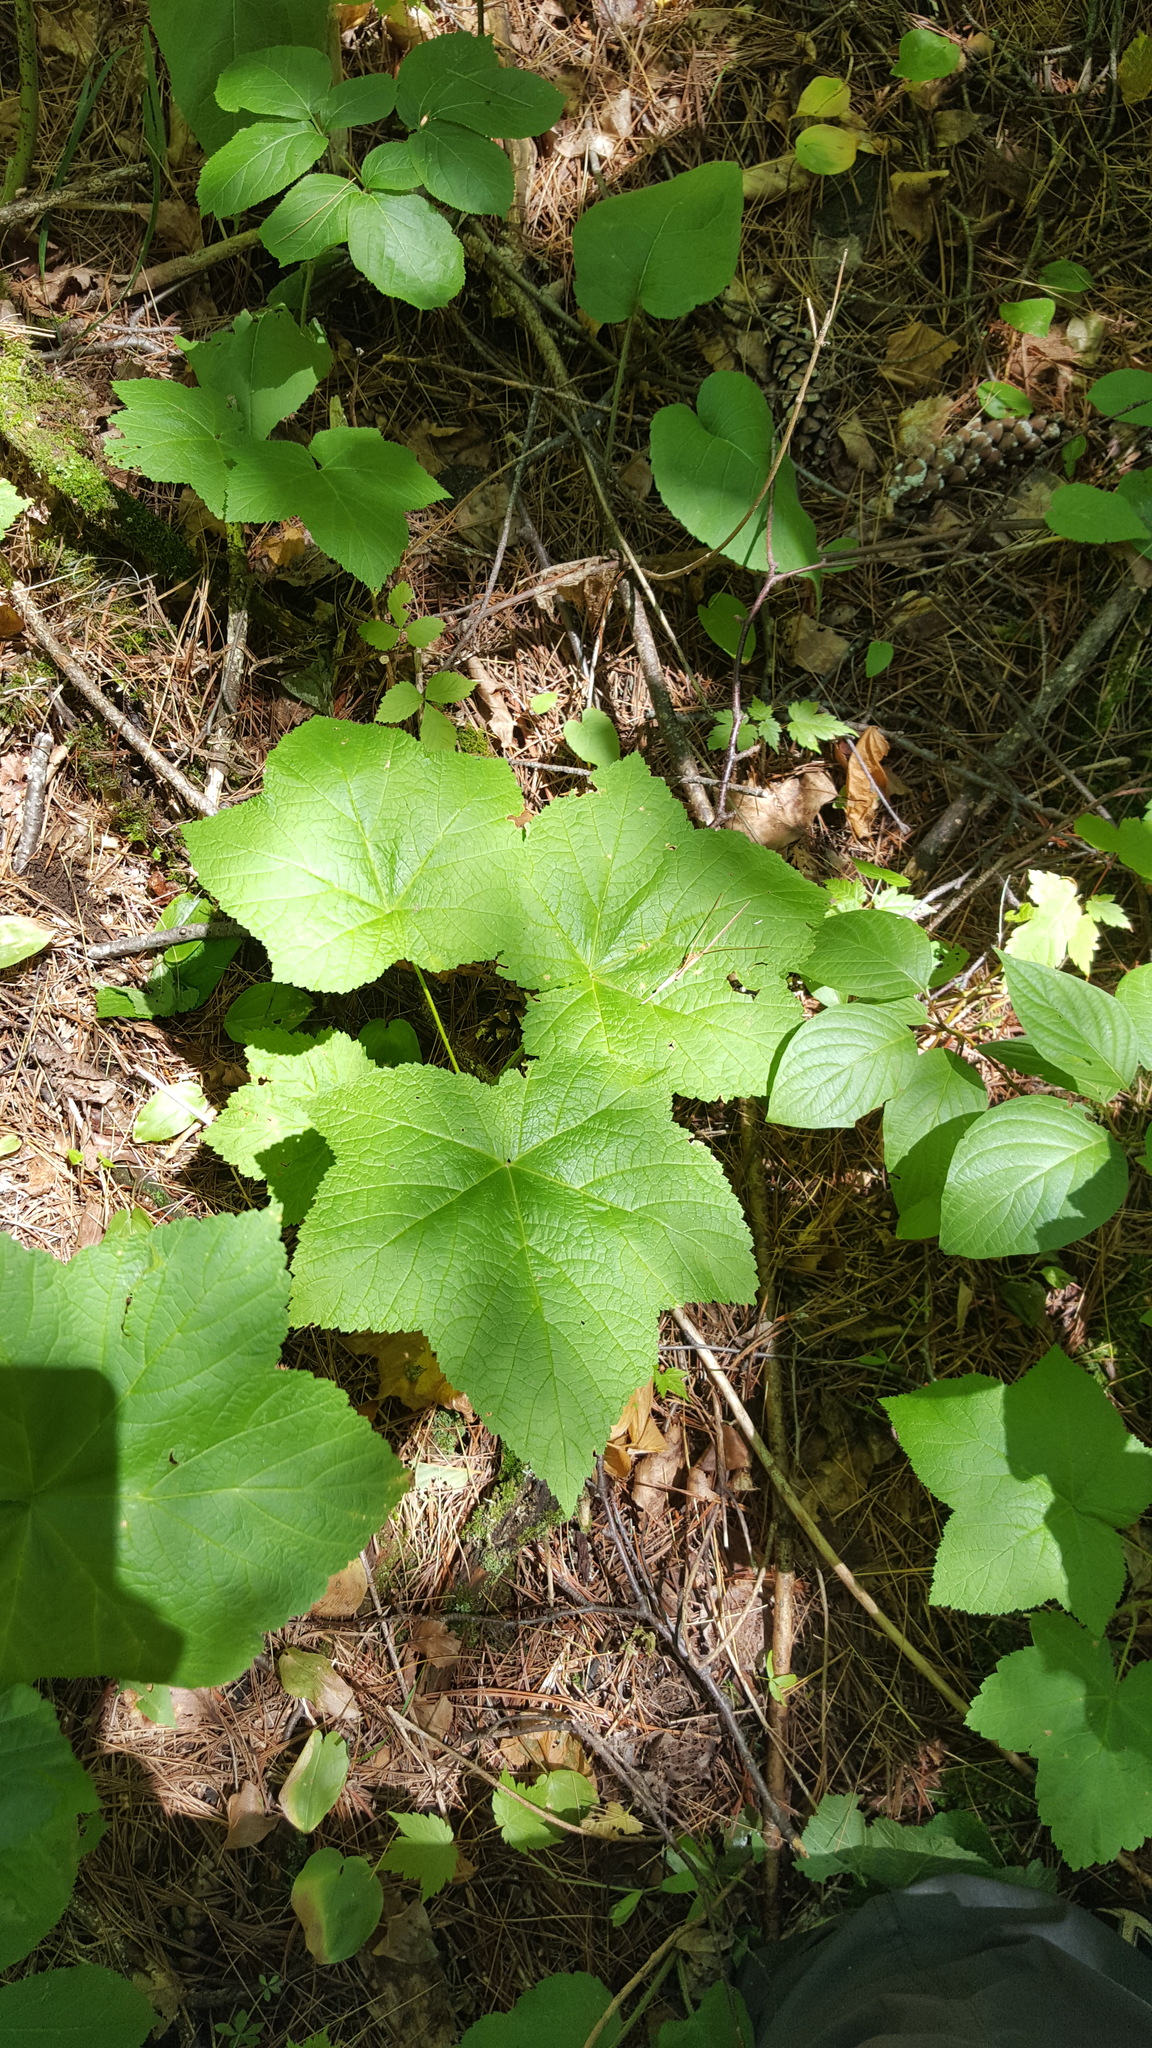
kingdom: Plantae
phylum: Tracheophyta
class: Magnoliopsida
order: Rosales
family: Rosaceae
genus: Rubus
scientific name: Rubus parviflorus
